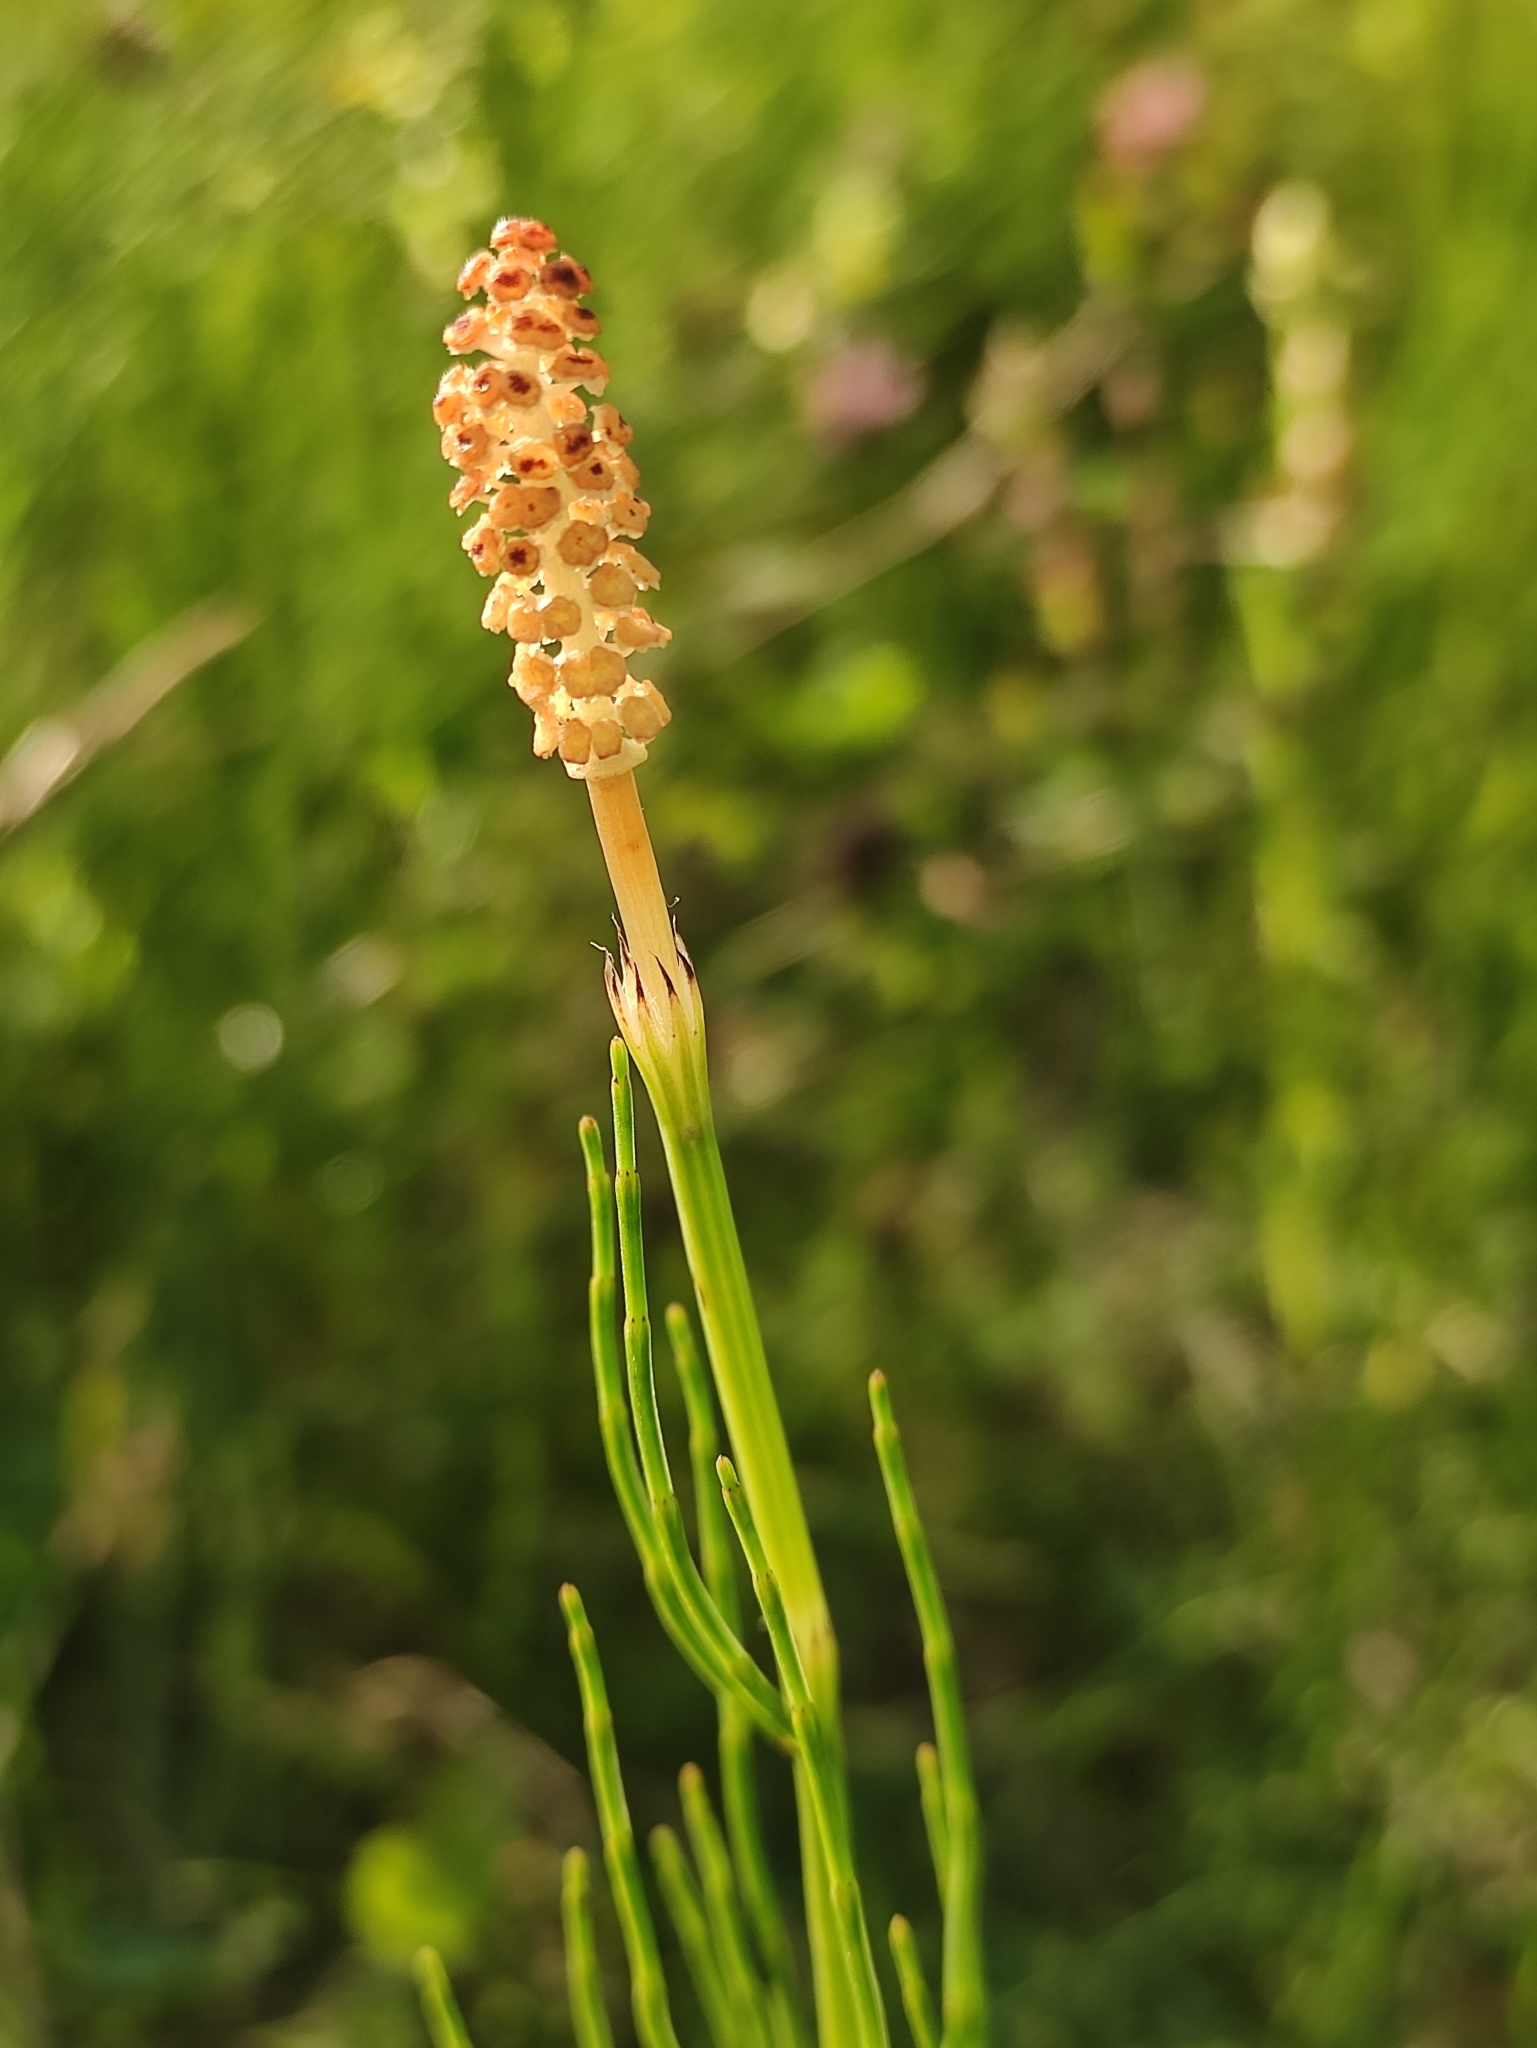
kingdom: Plantae
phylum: Tracheophyta
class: Polypodiopsida
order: Equisetales
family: Equisetaceae
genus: Equisetum
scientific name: Equisetum palustre
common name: Marsh horsetail
